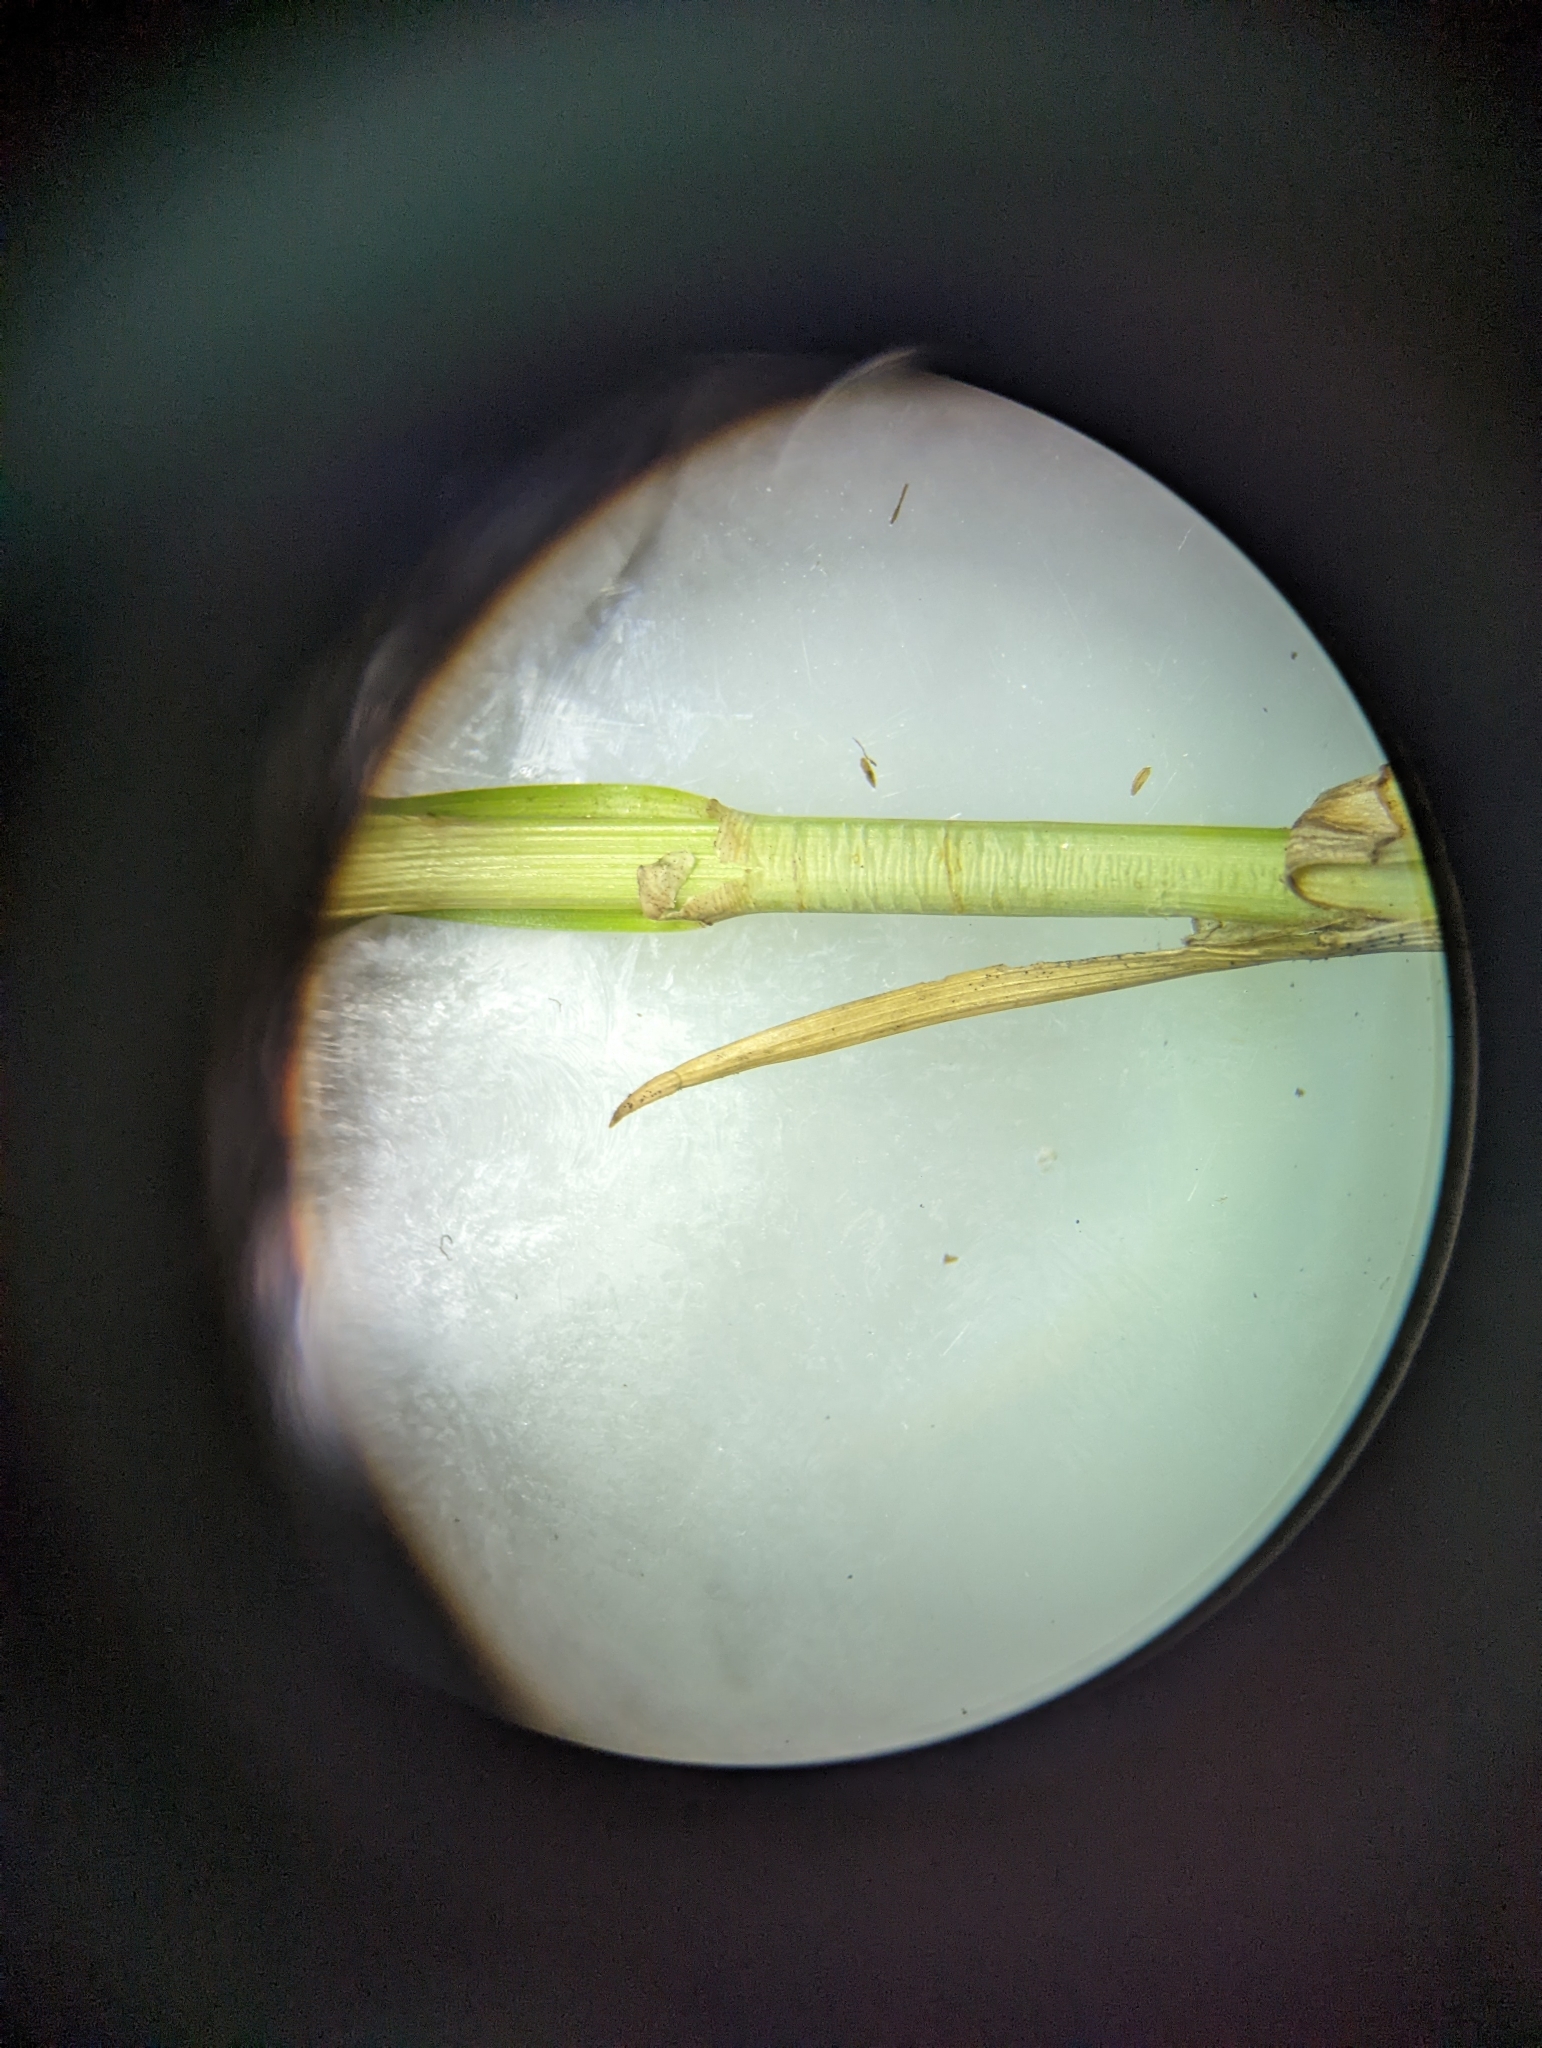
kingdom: Plantae
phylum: Tracheophyta
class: Liliopsida
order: Poales
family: Cyperaceae
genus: Carex
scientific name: Carex annectens
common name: Large fox sedge
